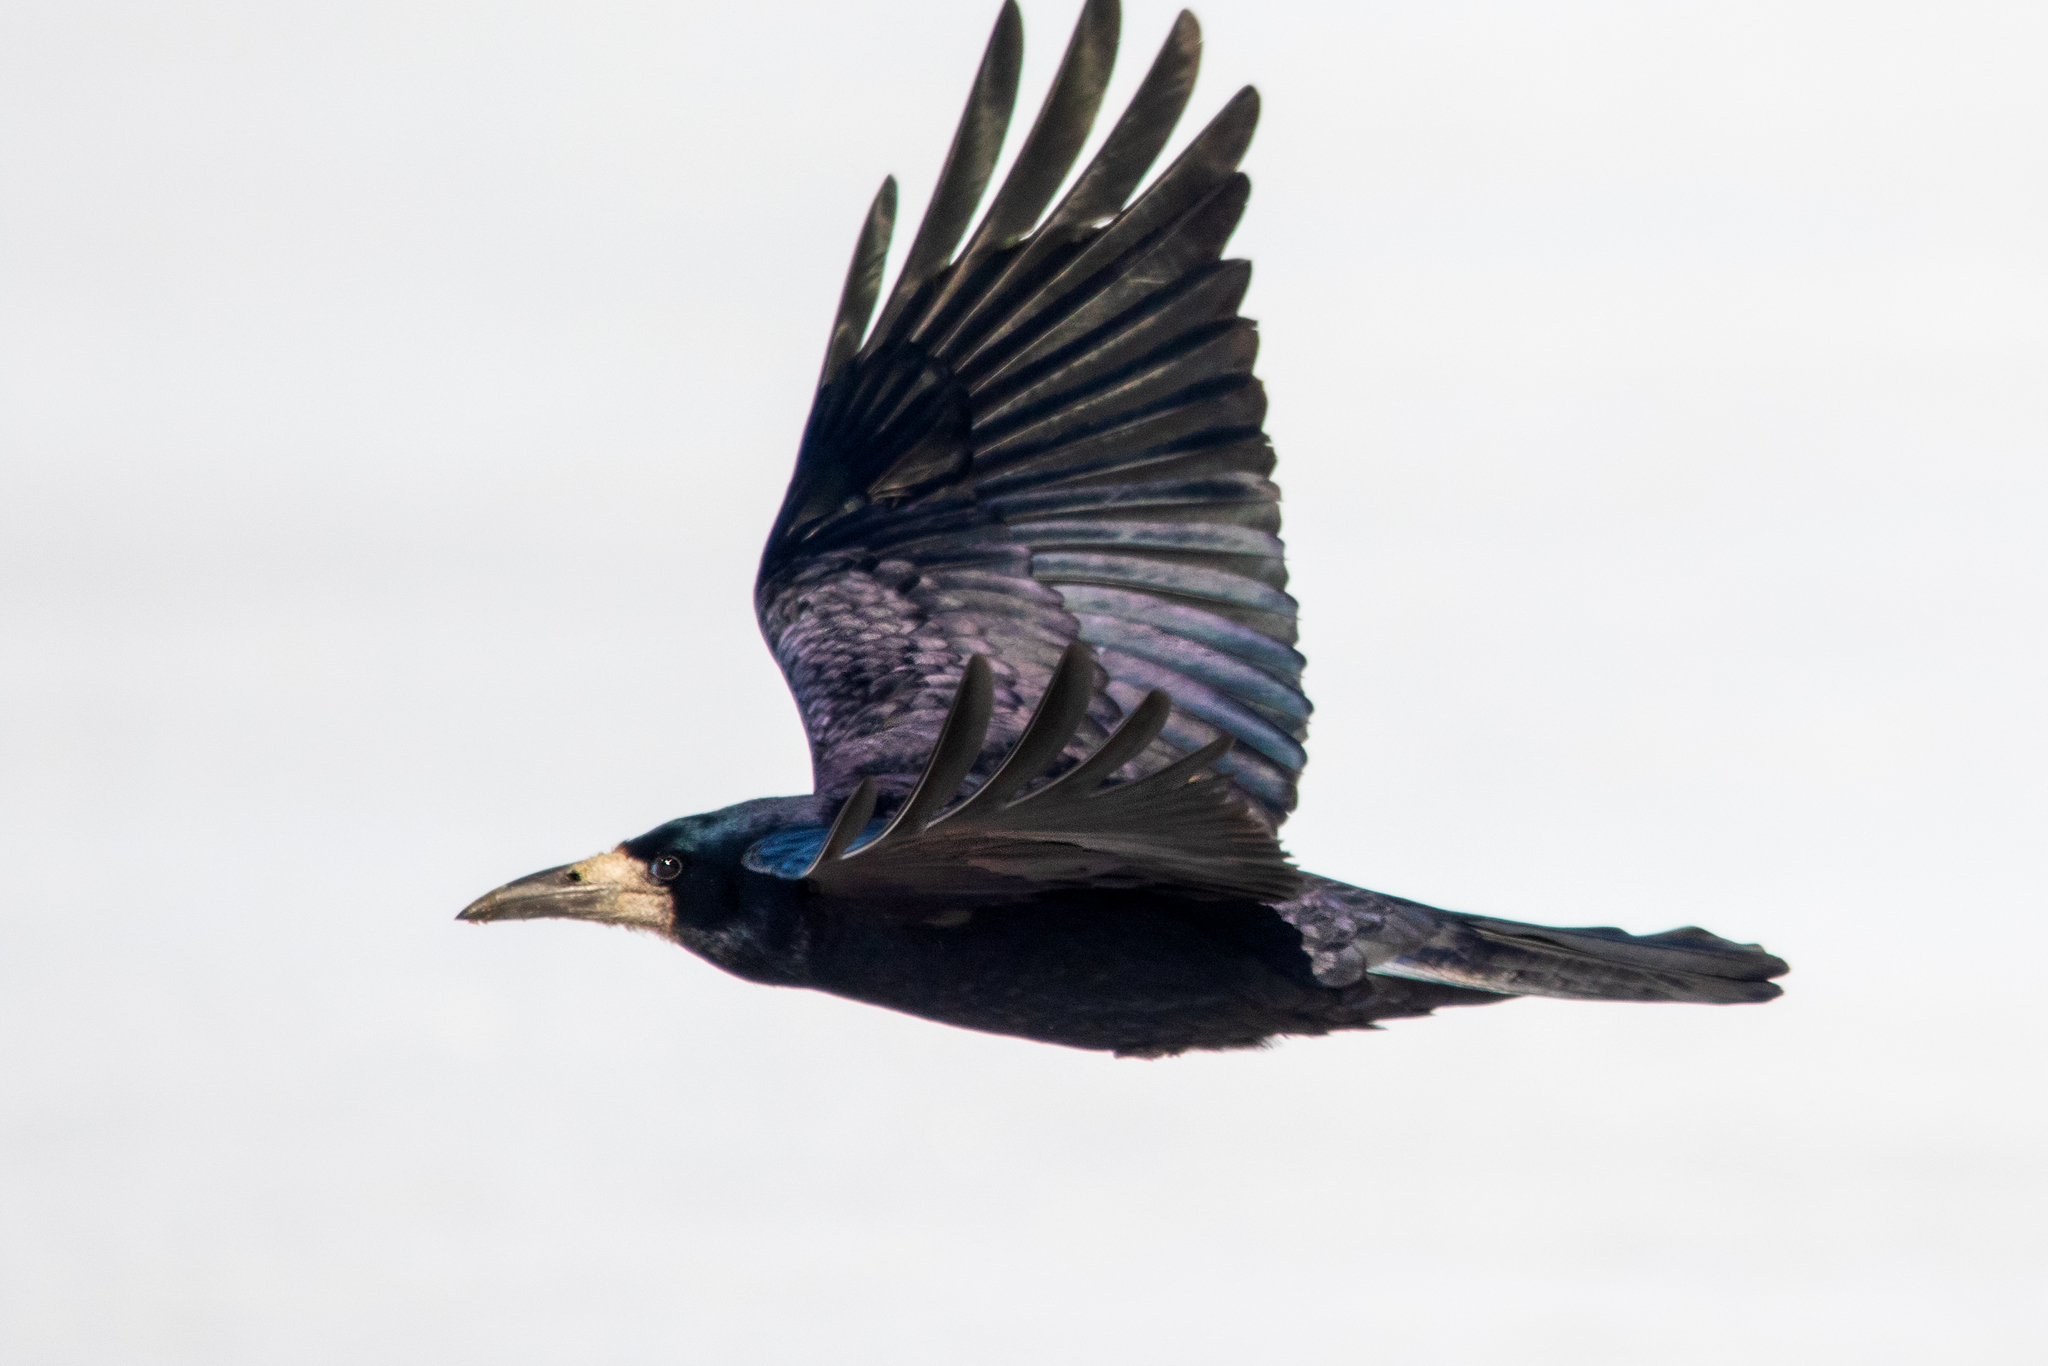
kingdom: Animalia
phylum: Chordata
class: Aves
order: Passeriformes
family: Corvidae
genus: Corvus
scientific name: Corvus frugilegus
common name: Rook
